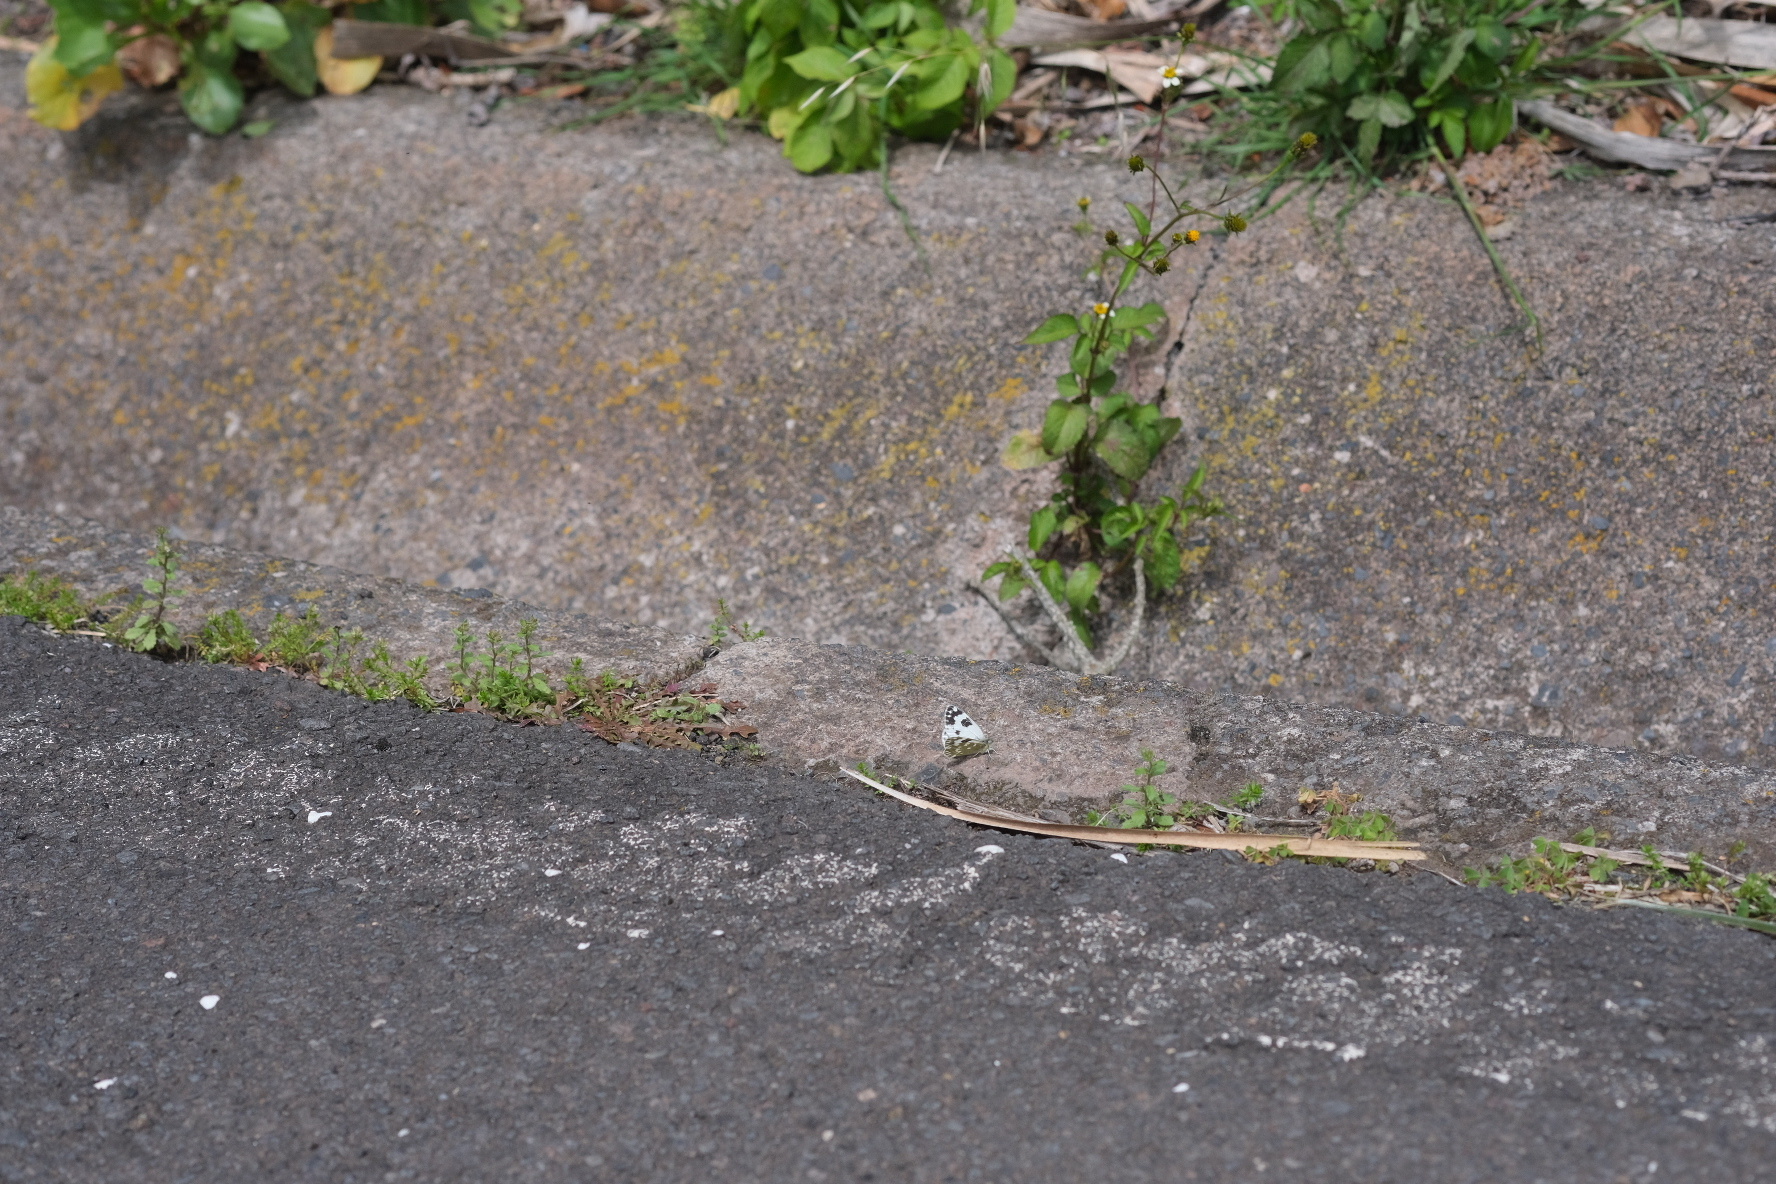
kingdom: Animalia
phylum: Arthropoda
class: Insecta
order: Lepidoptera
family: Pieridae
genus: Pontia
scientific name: Pontia daplidice
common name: Bath white
